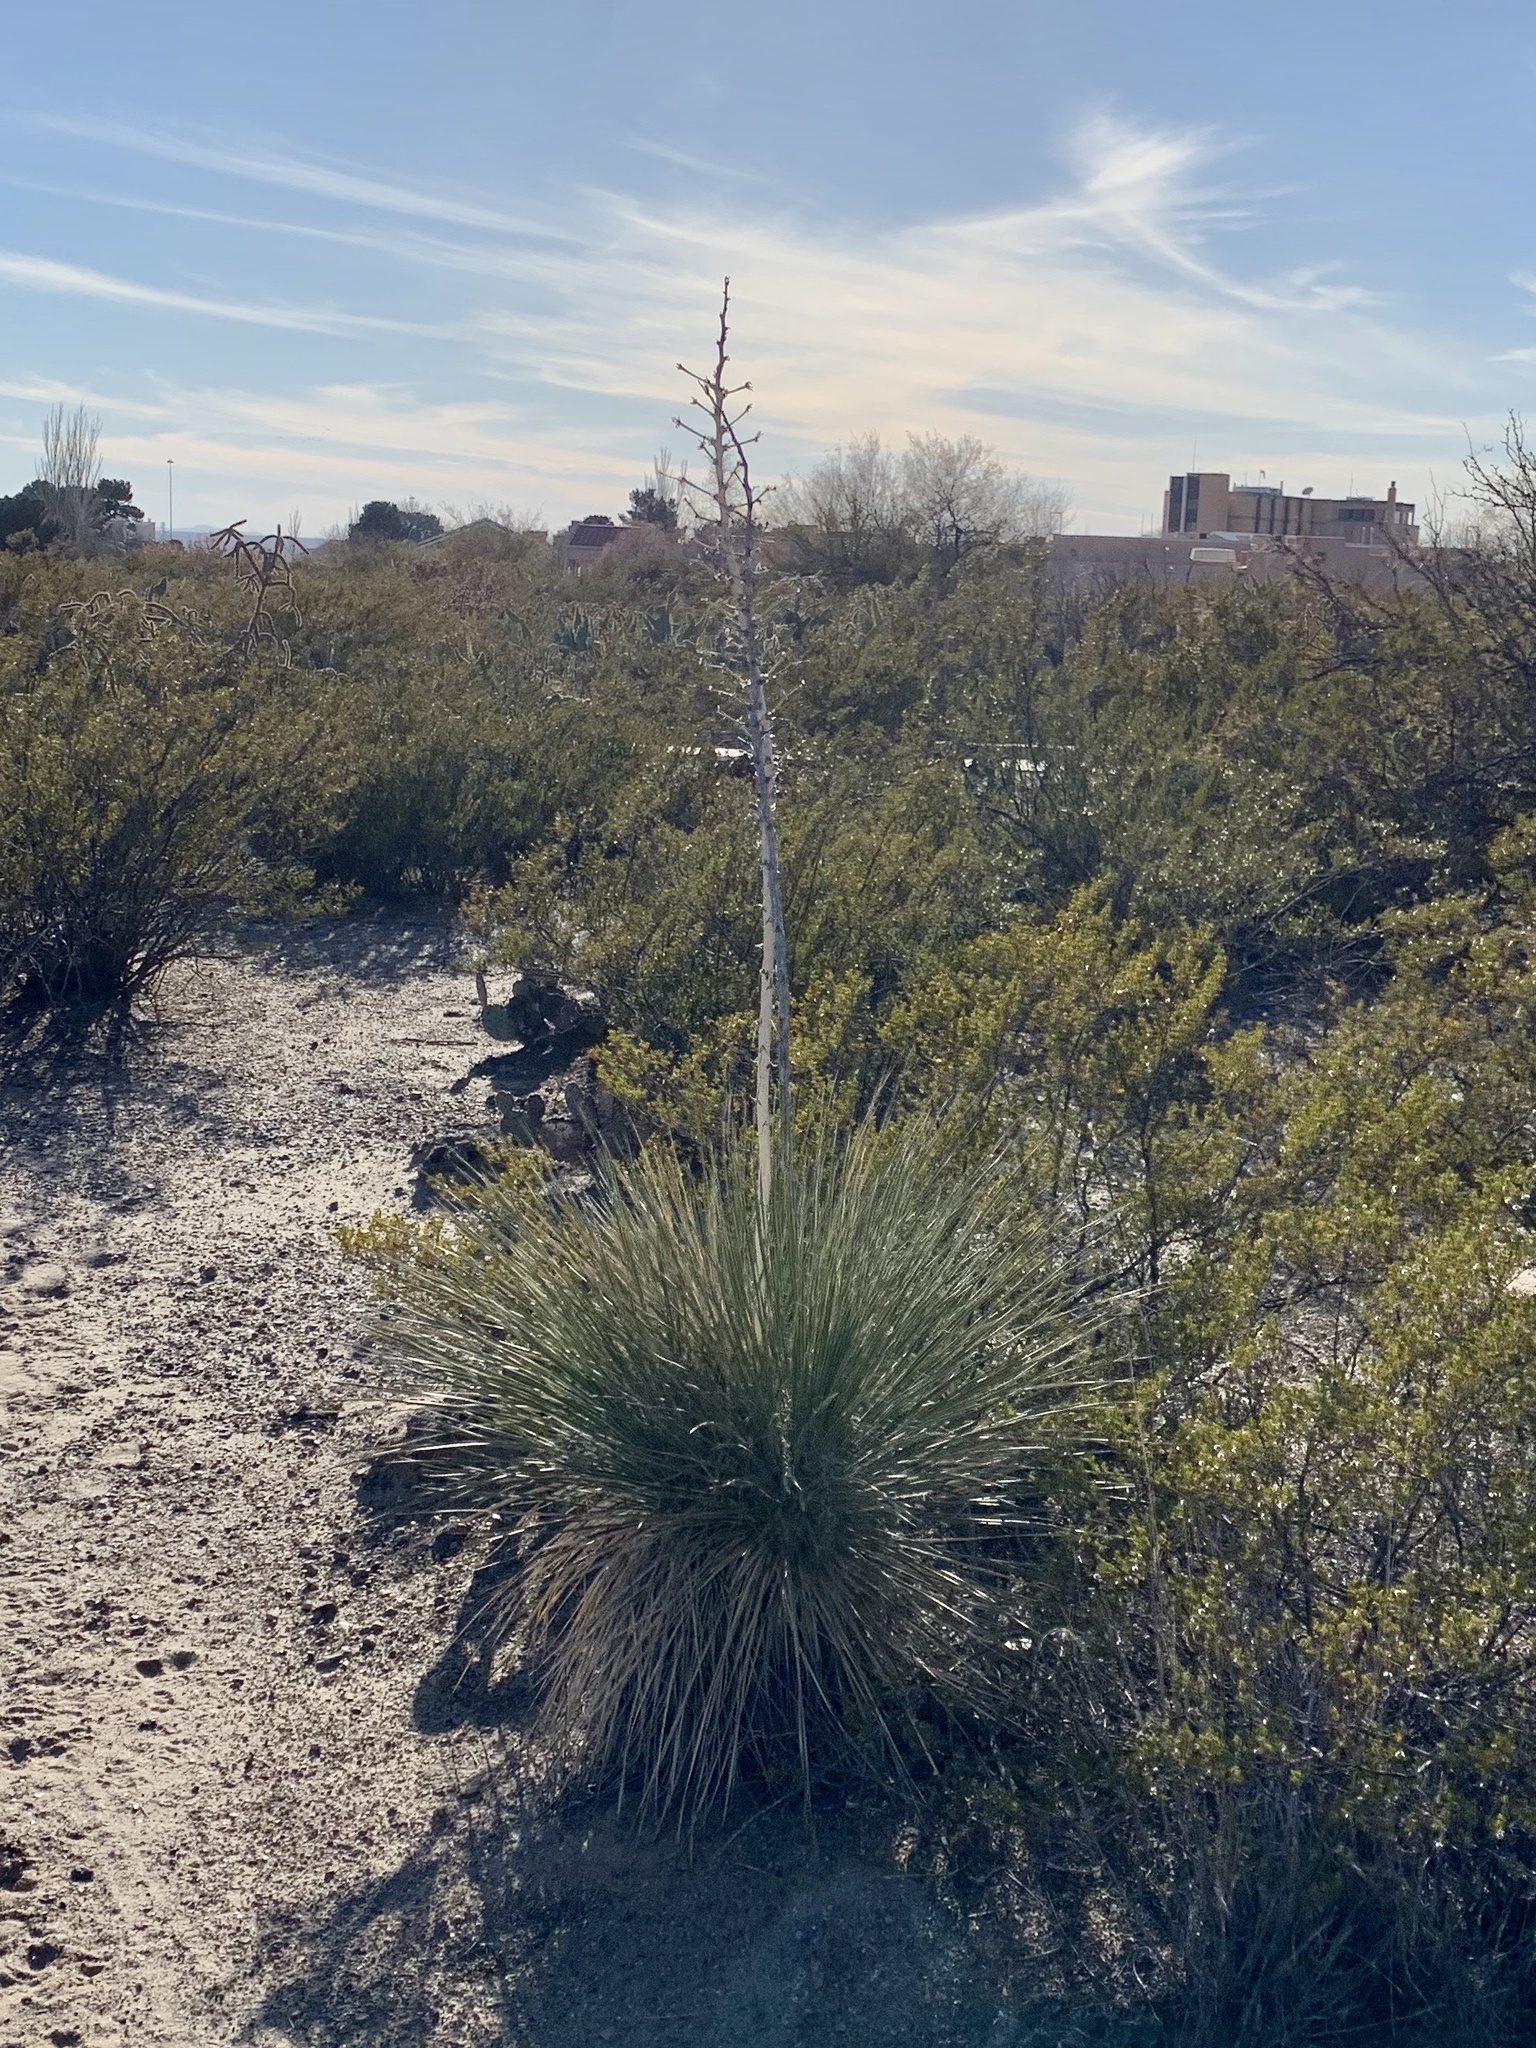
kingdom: Plantae
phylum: Tracheophyta
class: Liliopsida
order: Asparagales
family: Asparagaceae
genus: Yucca
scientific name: Yucca elata
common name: Palmella
